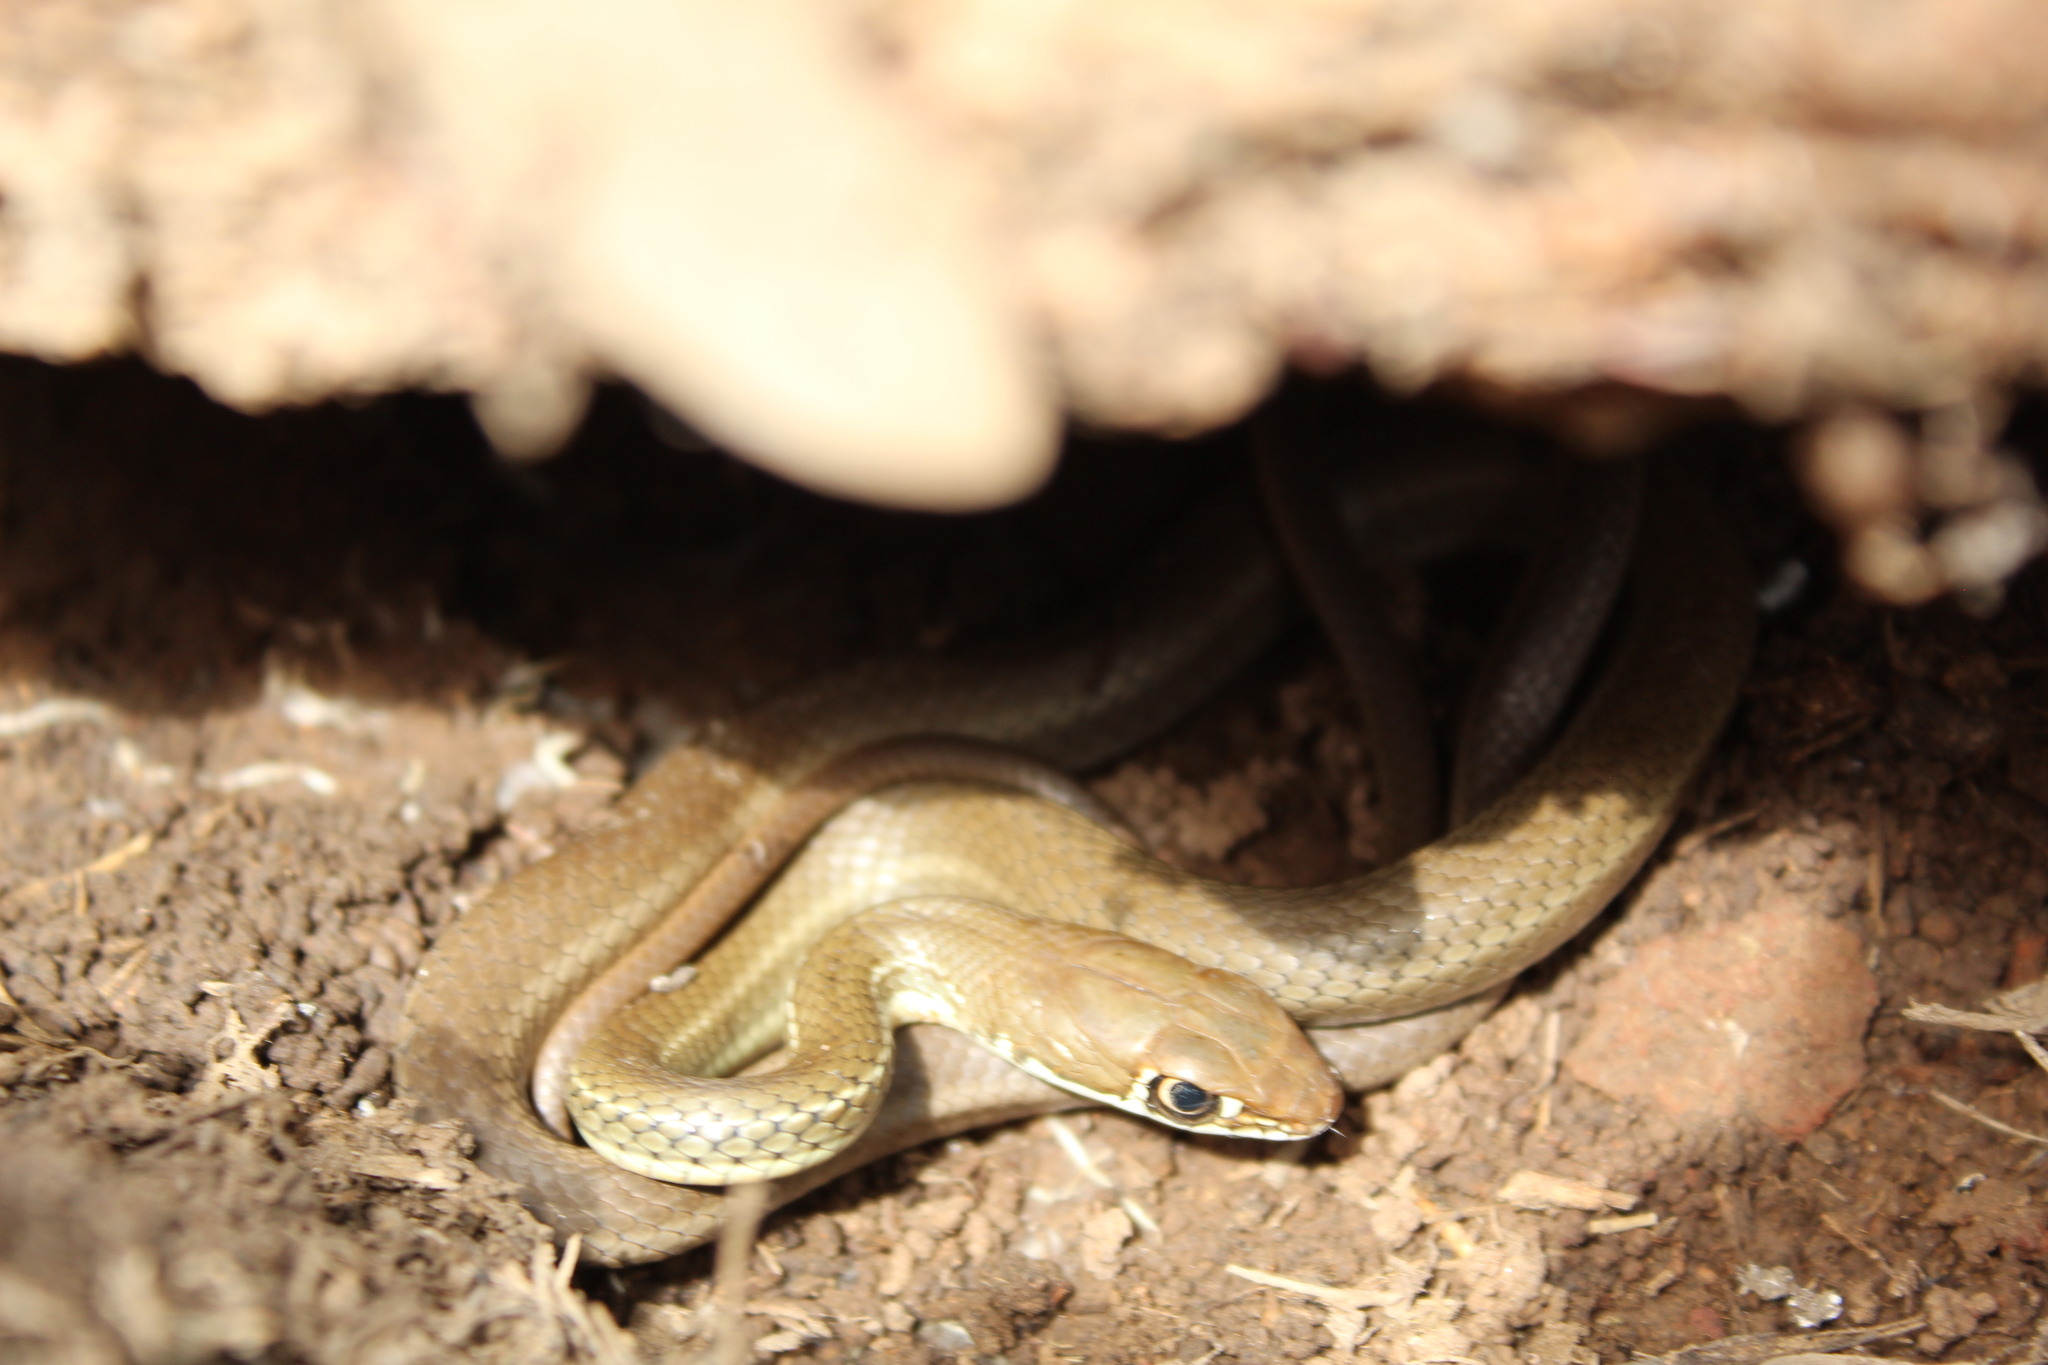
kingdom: Animalia
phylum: Chordata
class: Squamata
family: Colubridae
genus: Masticophis
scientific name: Masticophis schotti
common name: Schott's whipsnake
